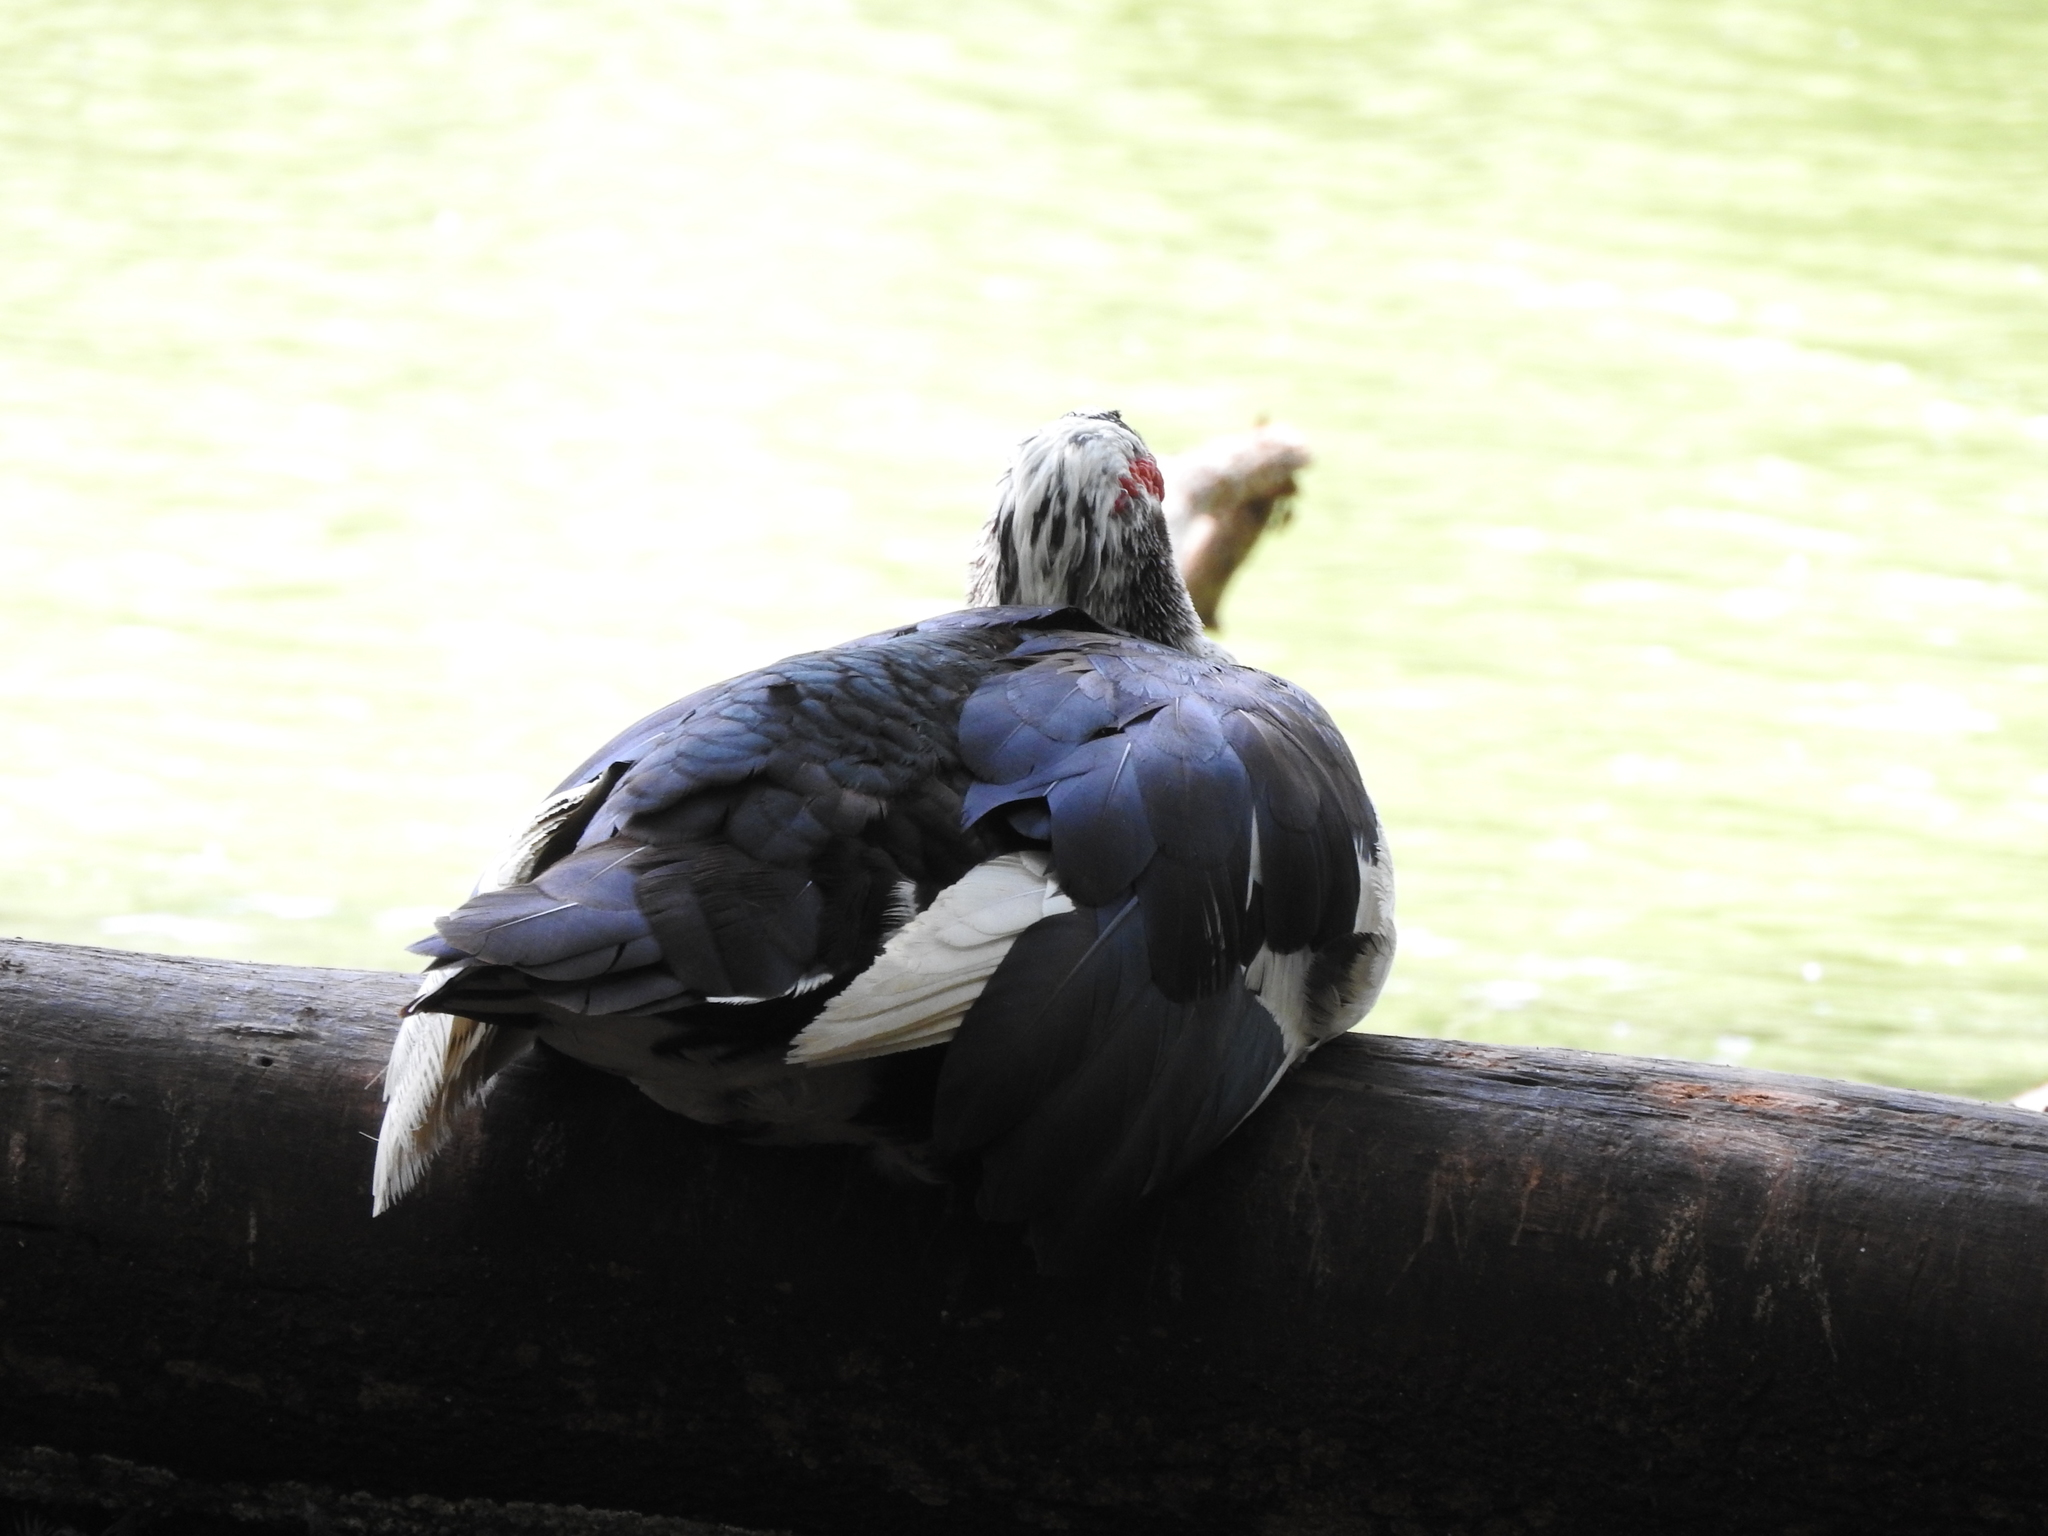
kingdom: Animalia
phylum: Chordata
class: Aves
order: Anseriformes
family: Anatidae
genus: Cairina
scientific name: Cairina moschata
